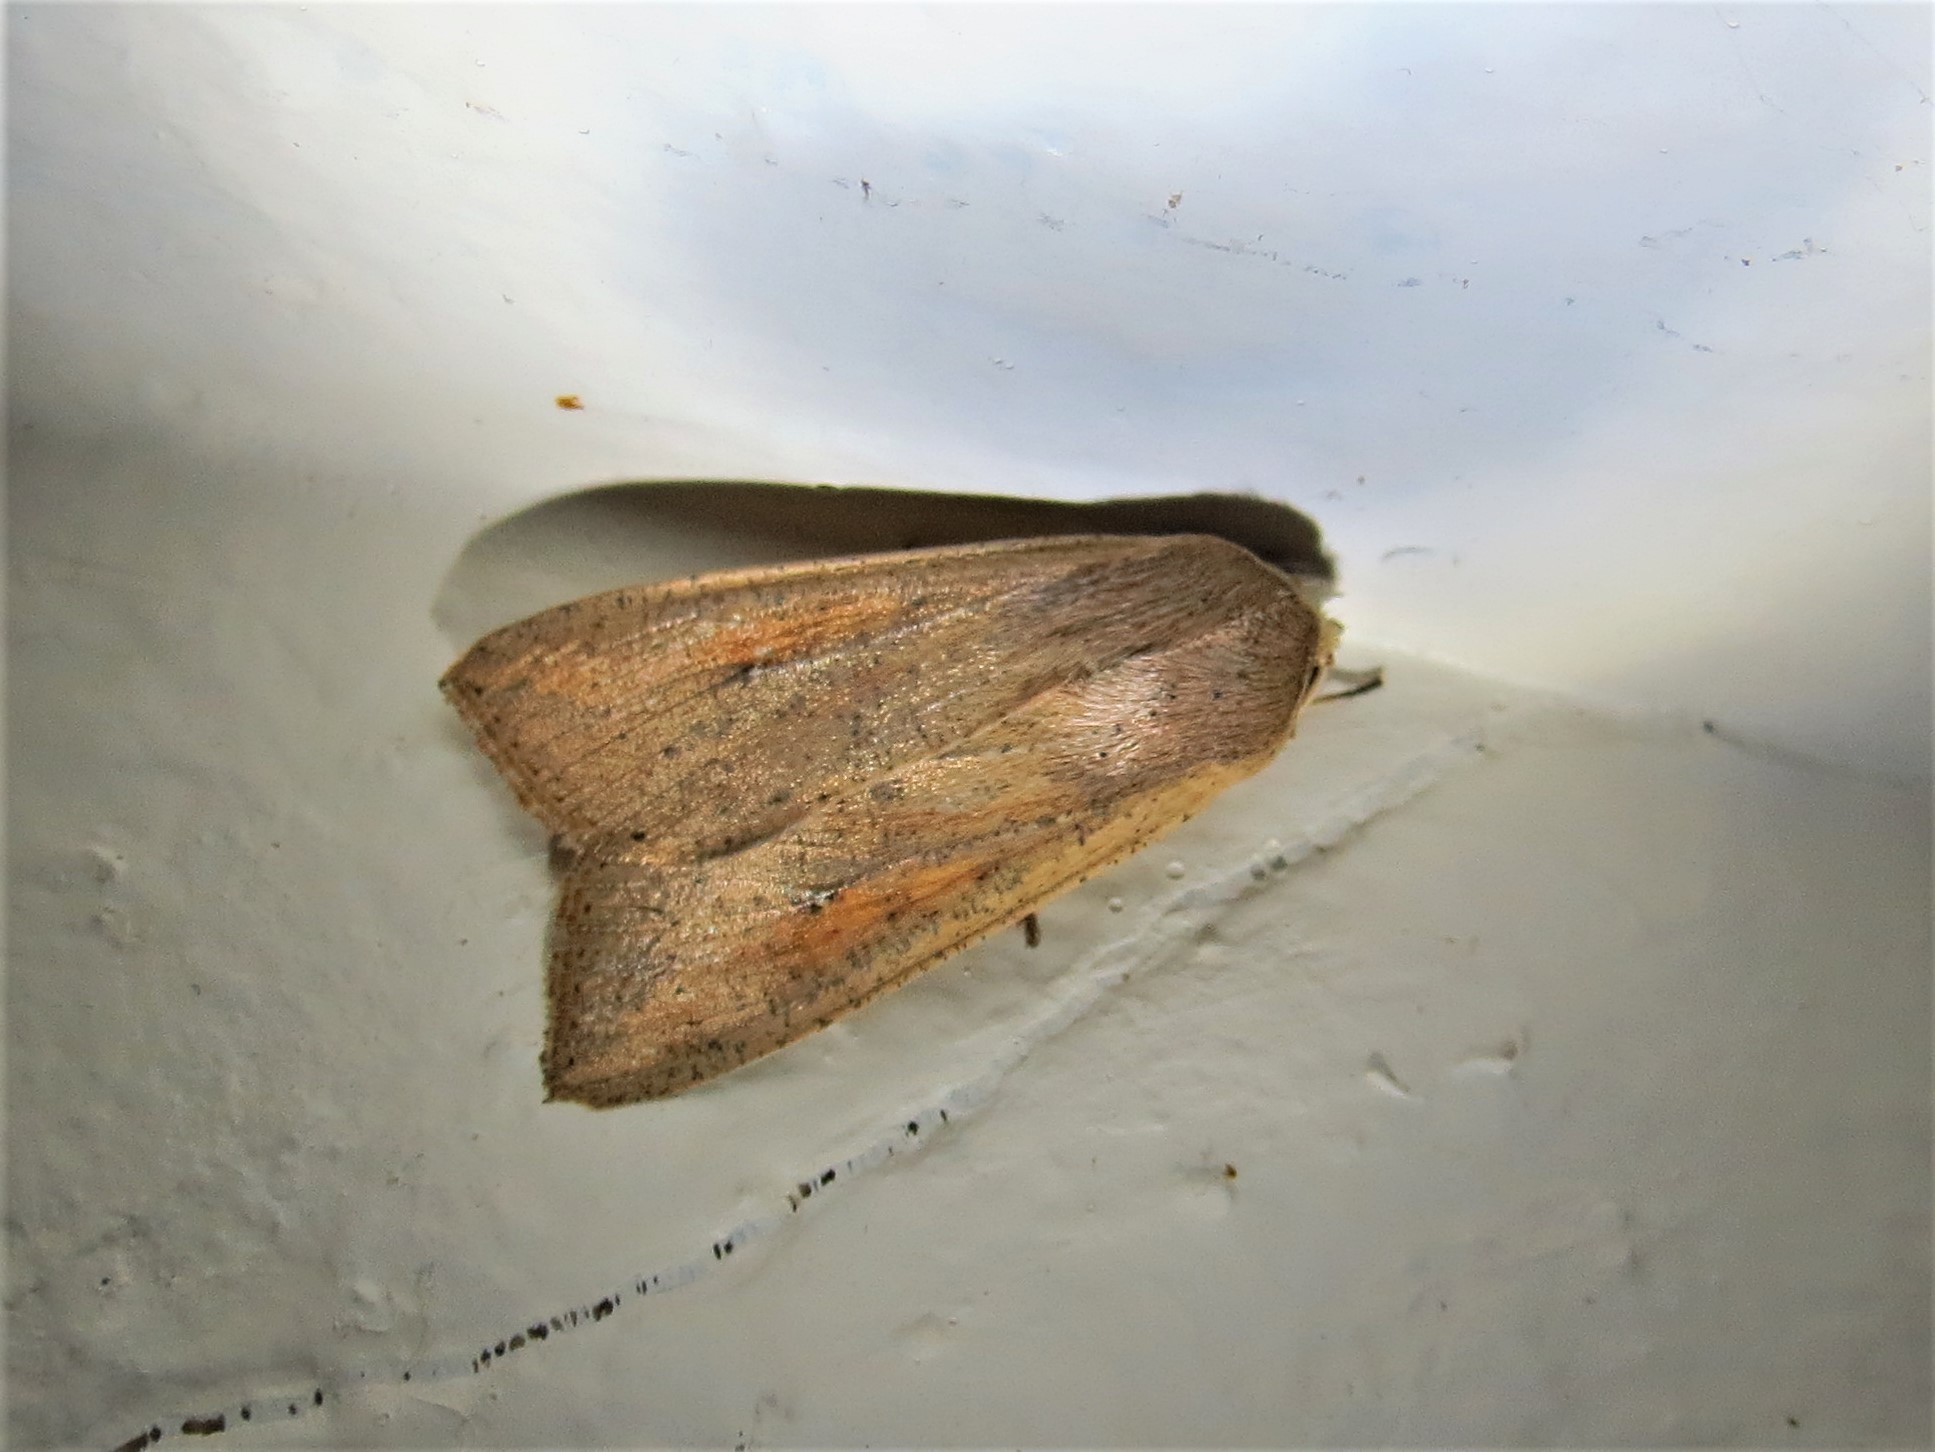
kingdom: Animalia
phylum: Arthropoda
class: Insecta
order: Lepidoptera
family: Noctuidae
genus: Mythimna
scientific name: Mythimna unipuncta
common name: White-speck
